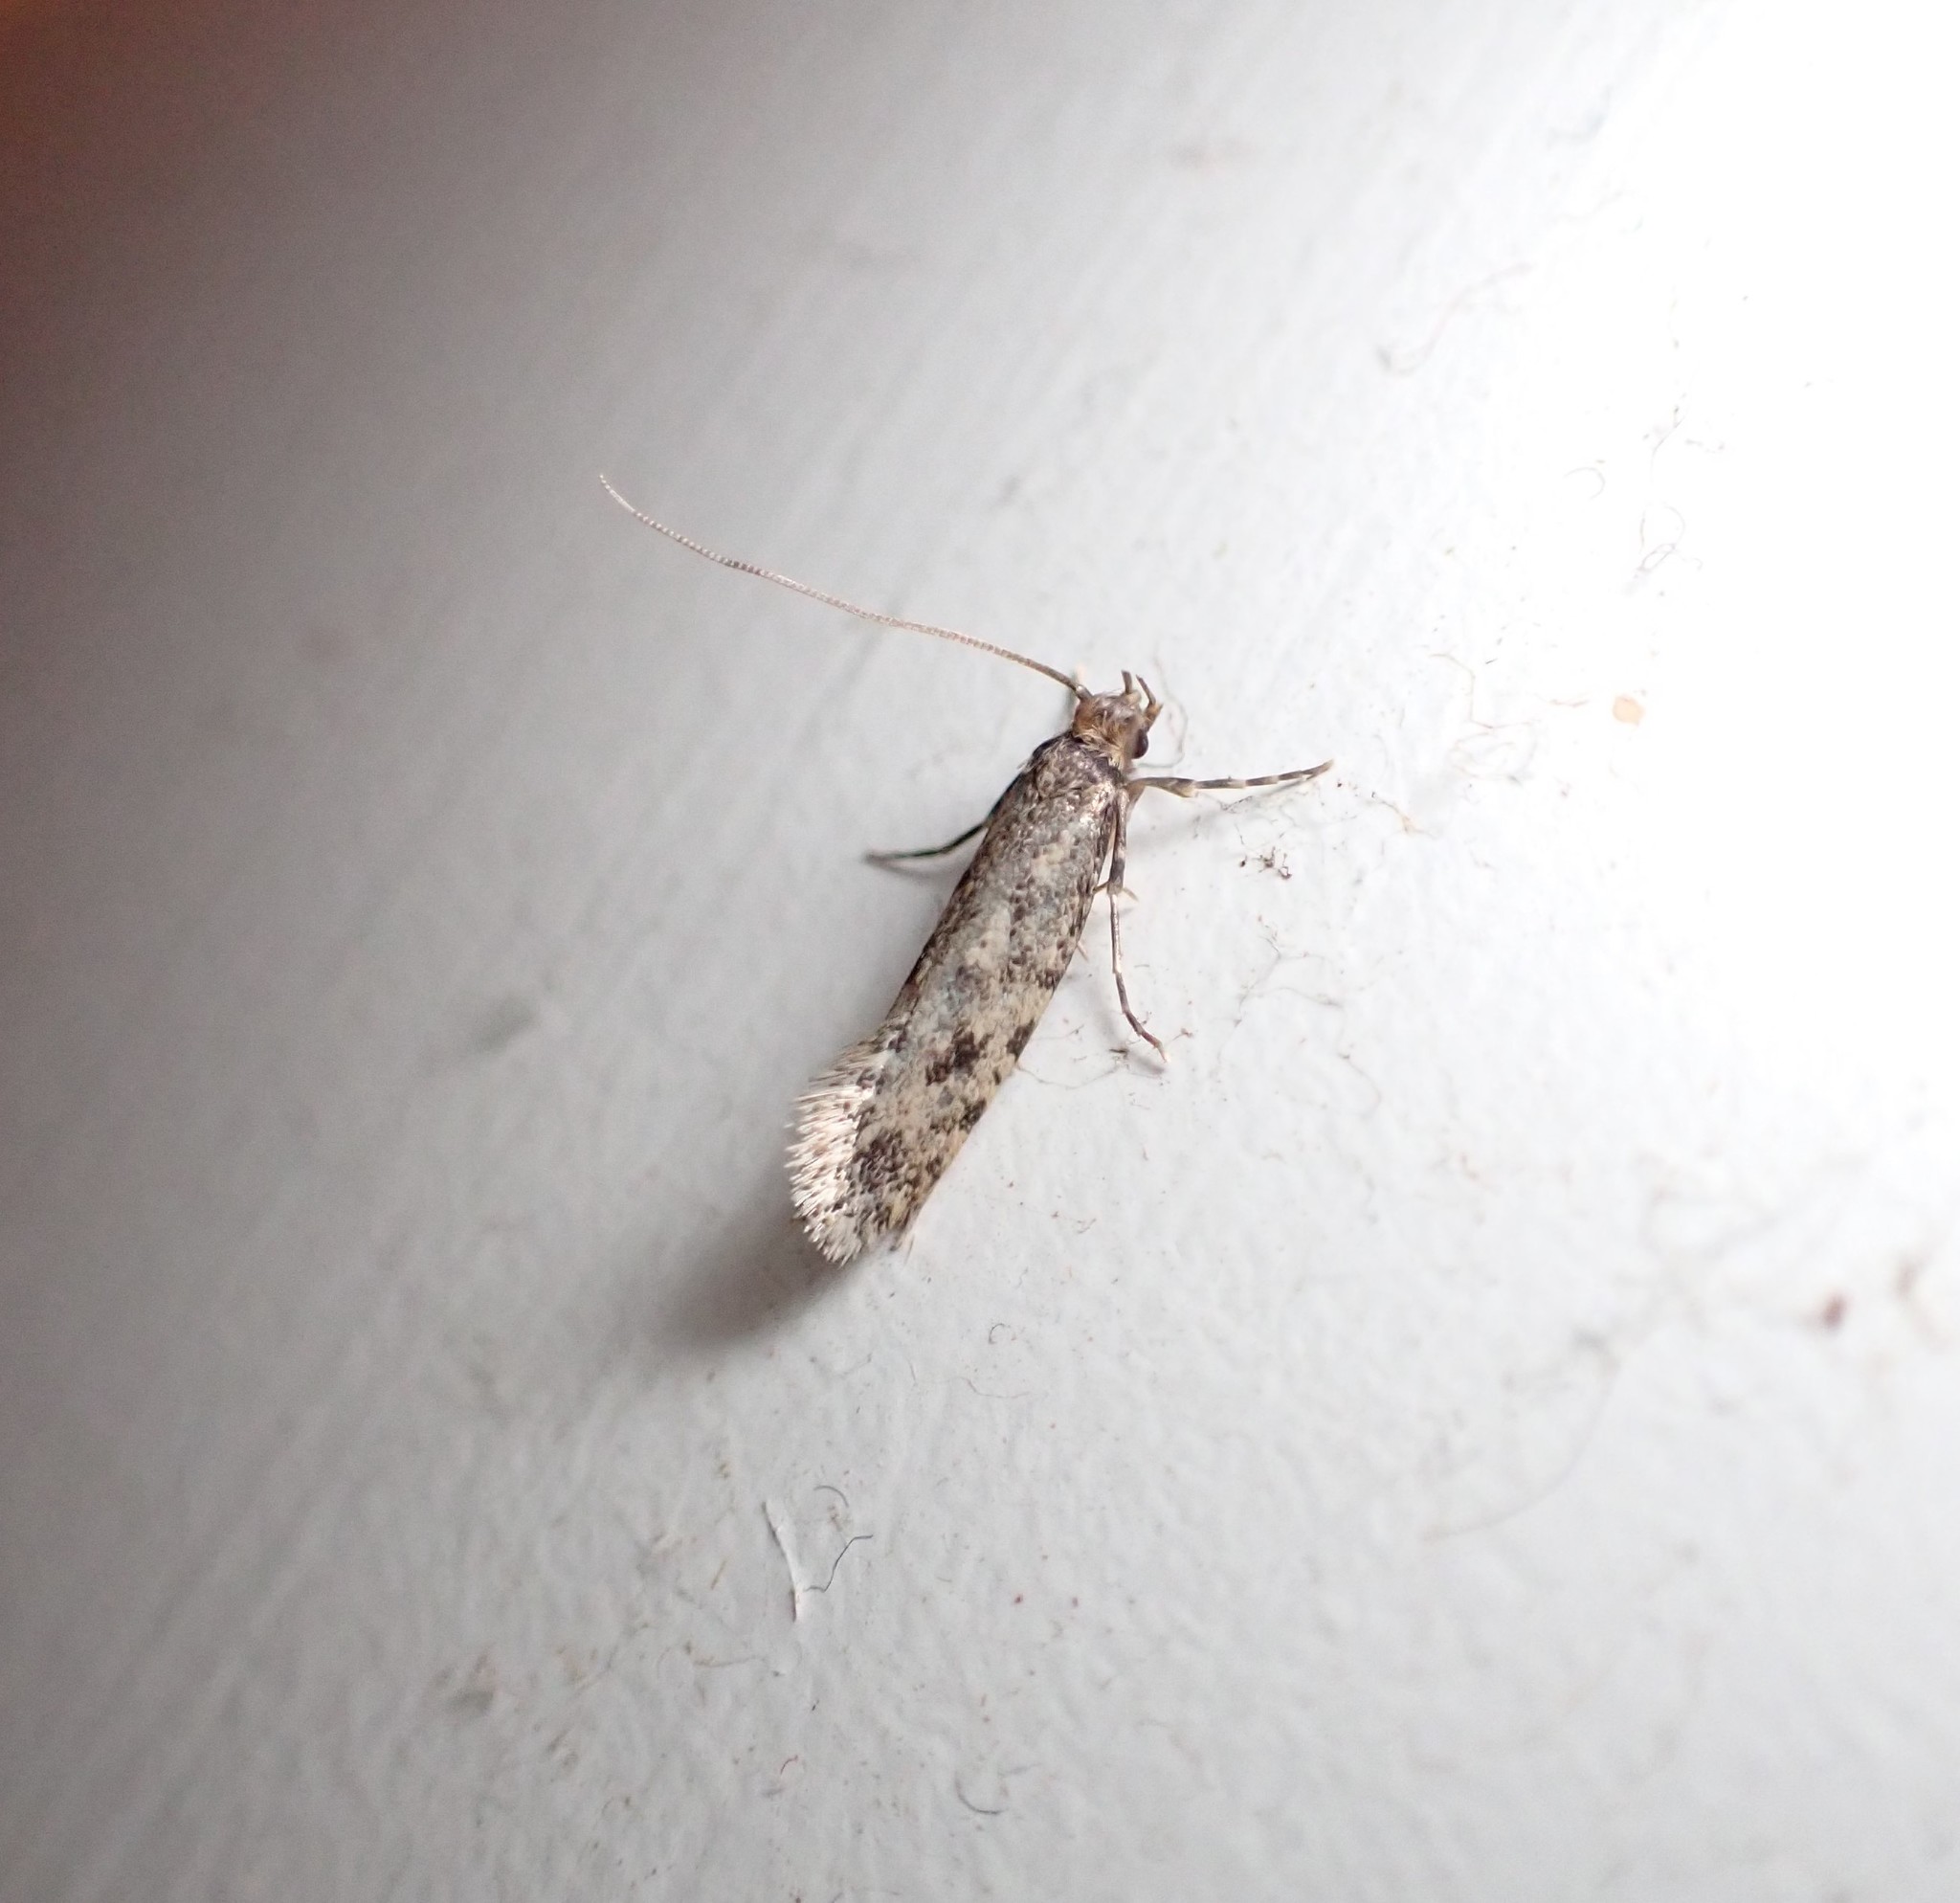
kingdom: Animalia
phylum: Arthropoda
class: Insecta
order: Lepidoptera
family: Tineidae
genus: Lindera
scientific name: Lindera tessellatella
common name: Moth
